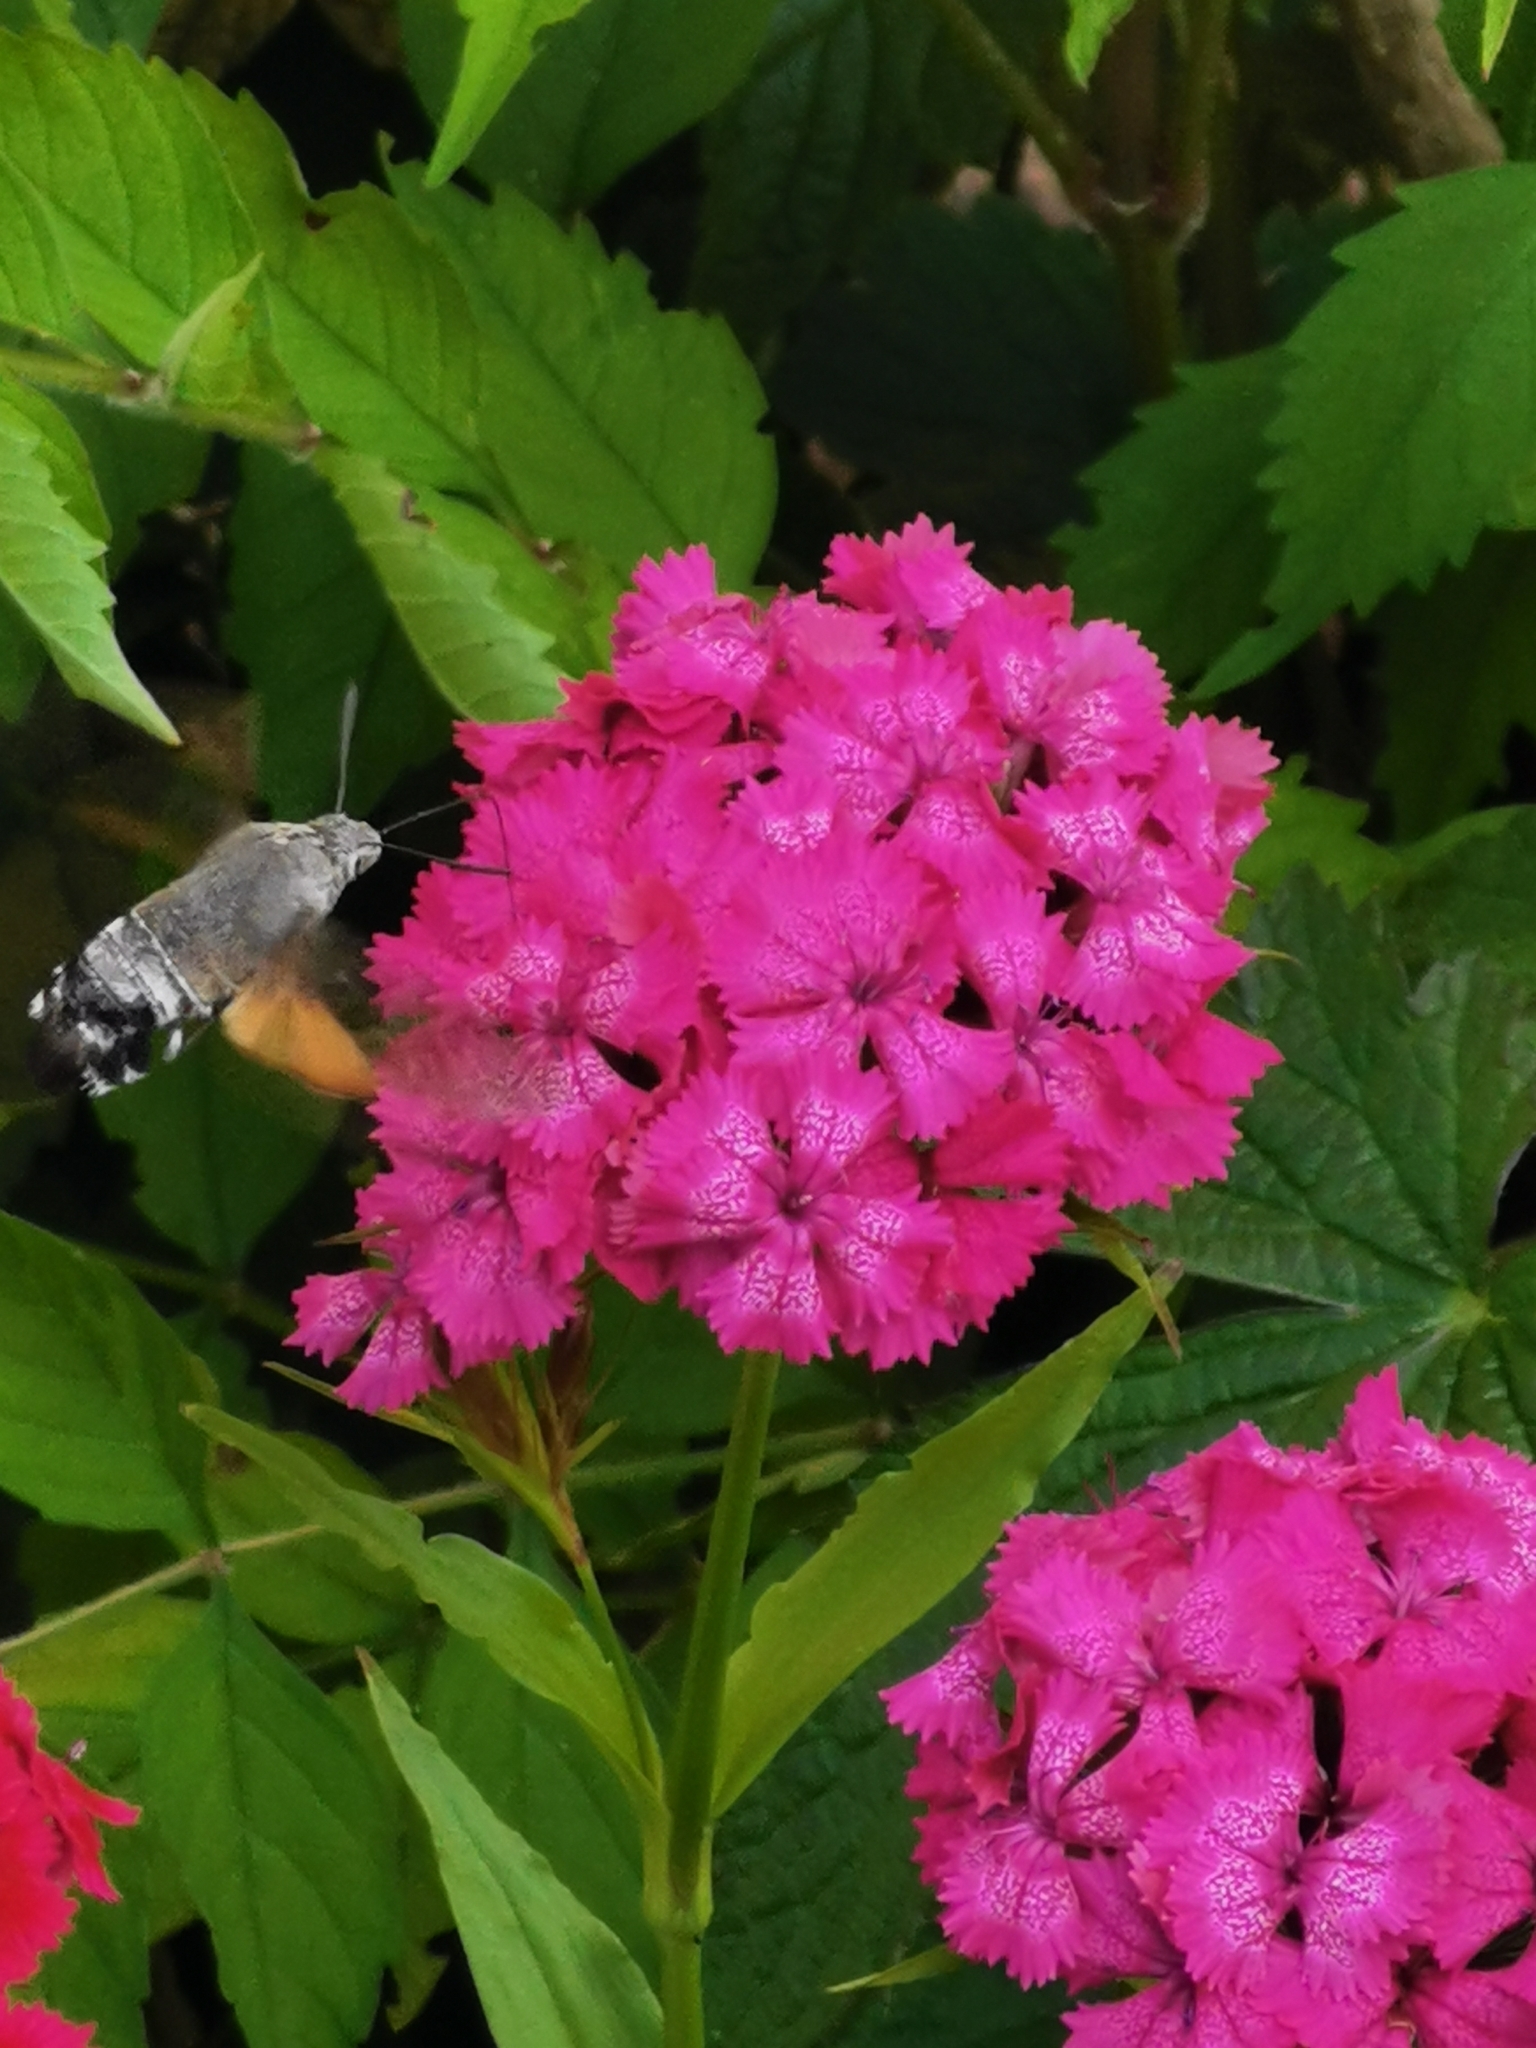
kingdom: Animalia
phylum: Arthropoda
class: Insecta
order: Lepidoptera
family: Sphingidae
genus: Macroglossum
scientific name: Macroglossum stellatarum
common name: Humming-bird hawk-moth
